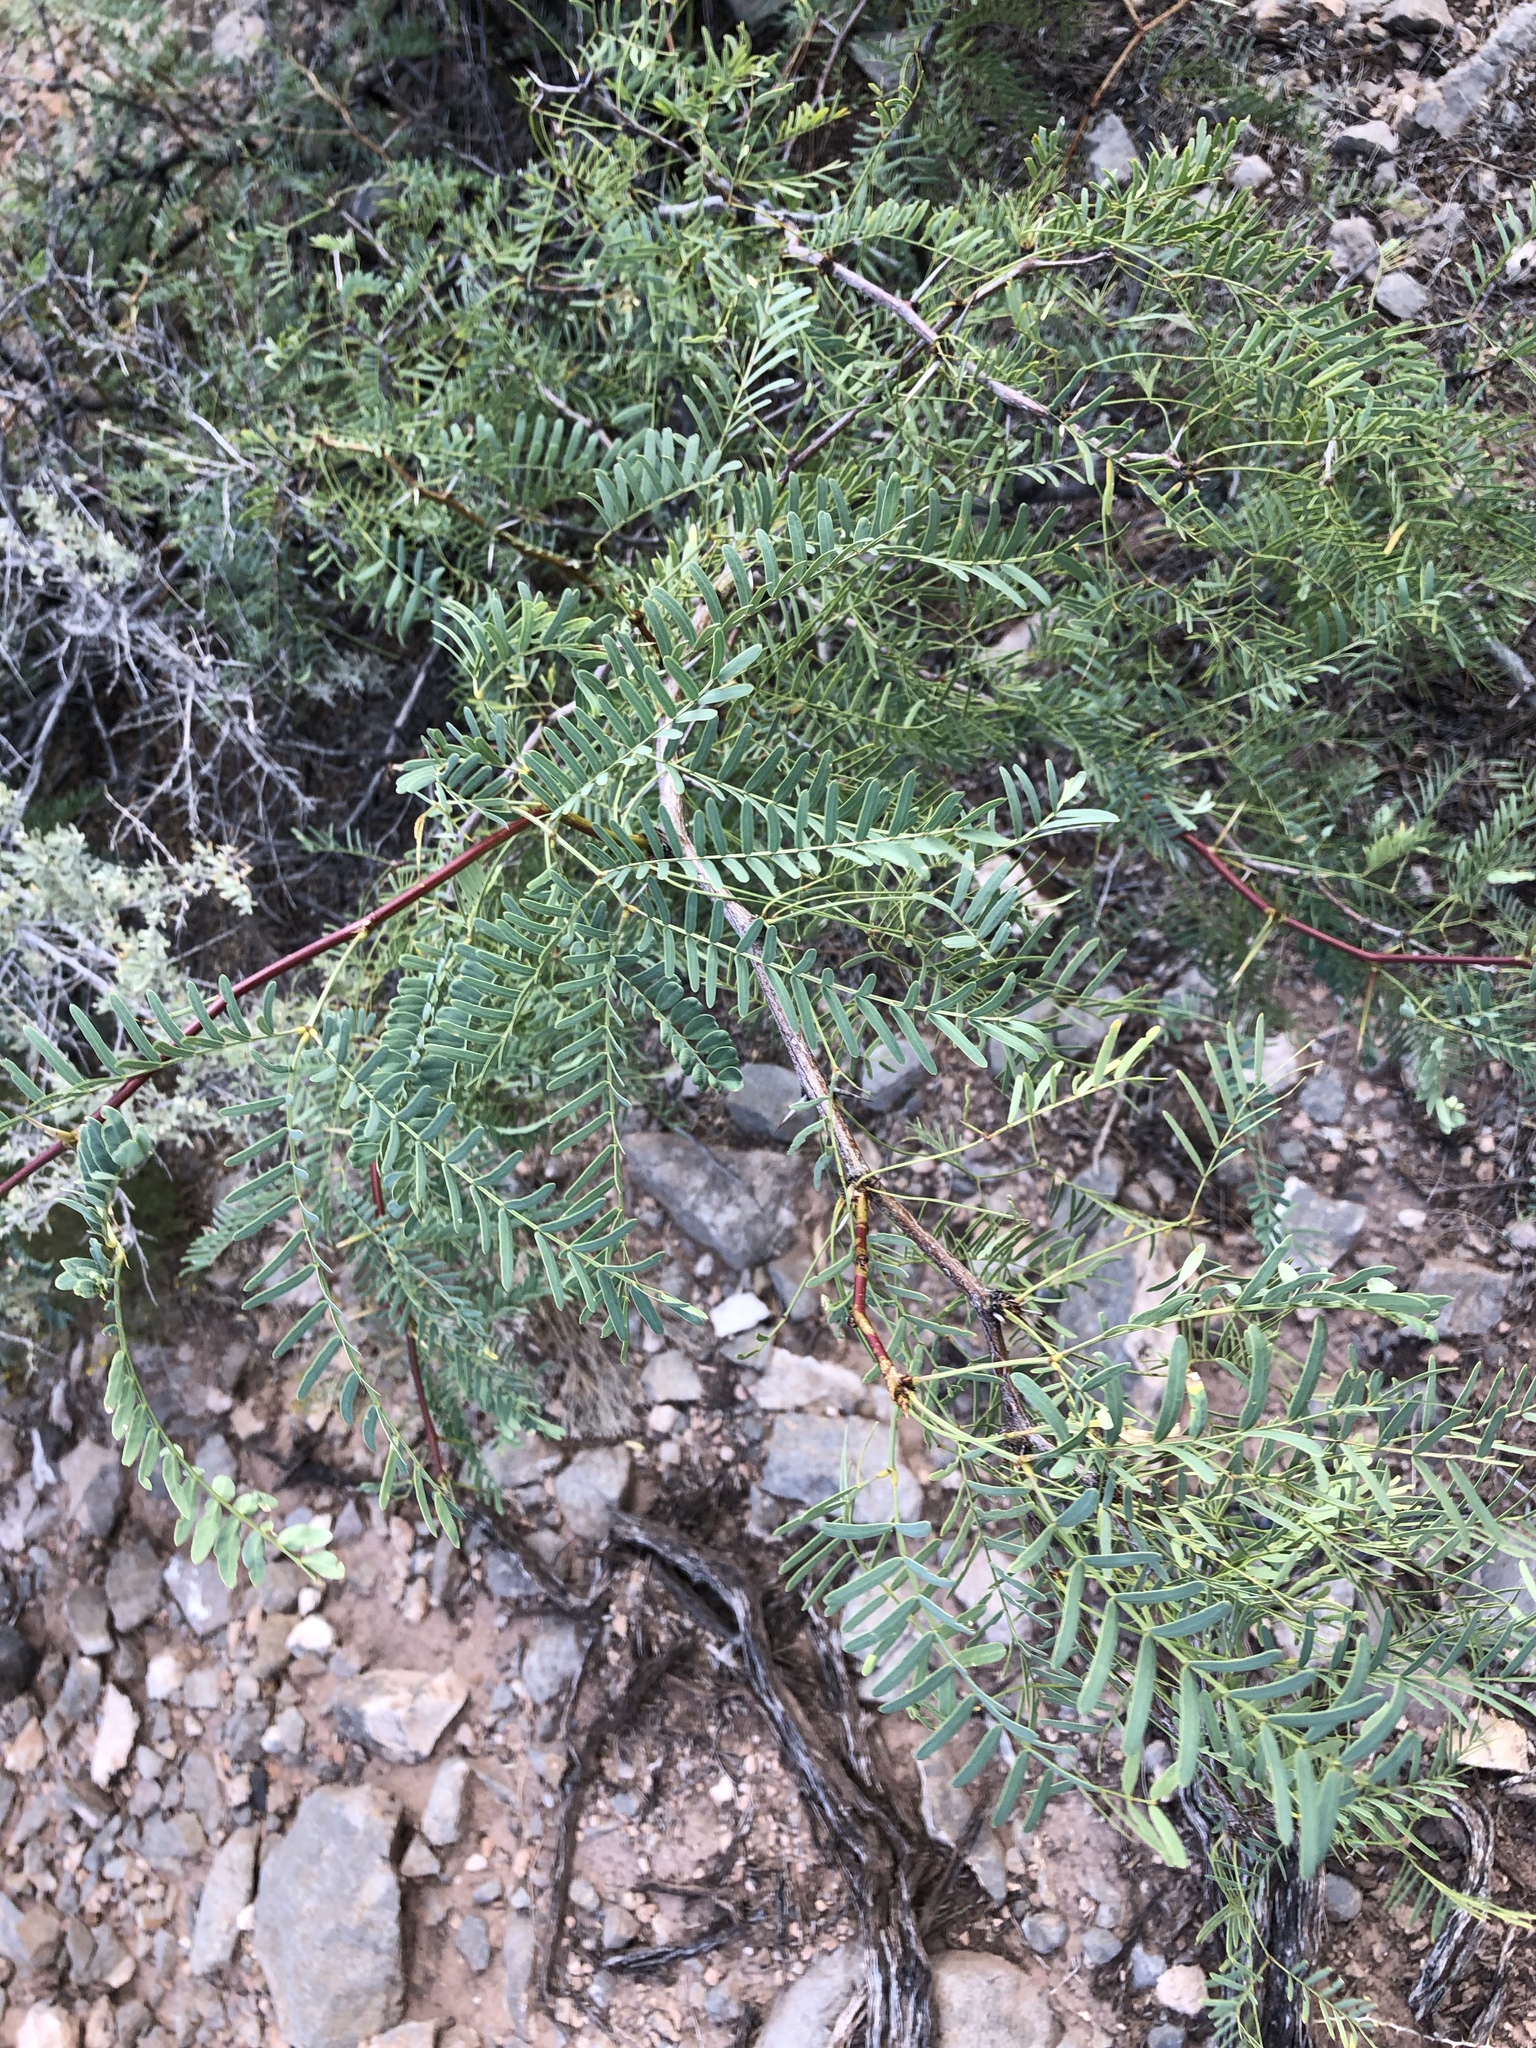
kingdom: Plantae
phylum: Tracheophyta
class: Magnoliopsida
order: Fabales
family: Fabaceae
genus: Prosopis
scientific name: Prosopis glandulosa
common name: Honey mesquite
